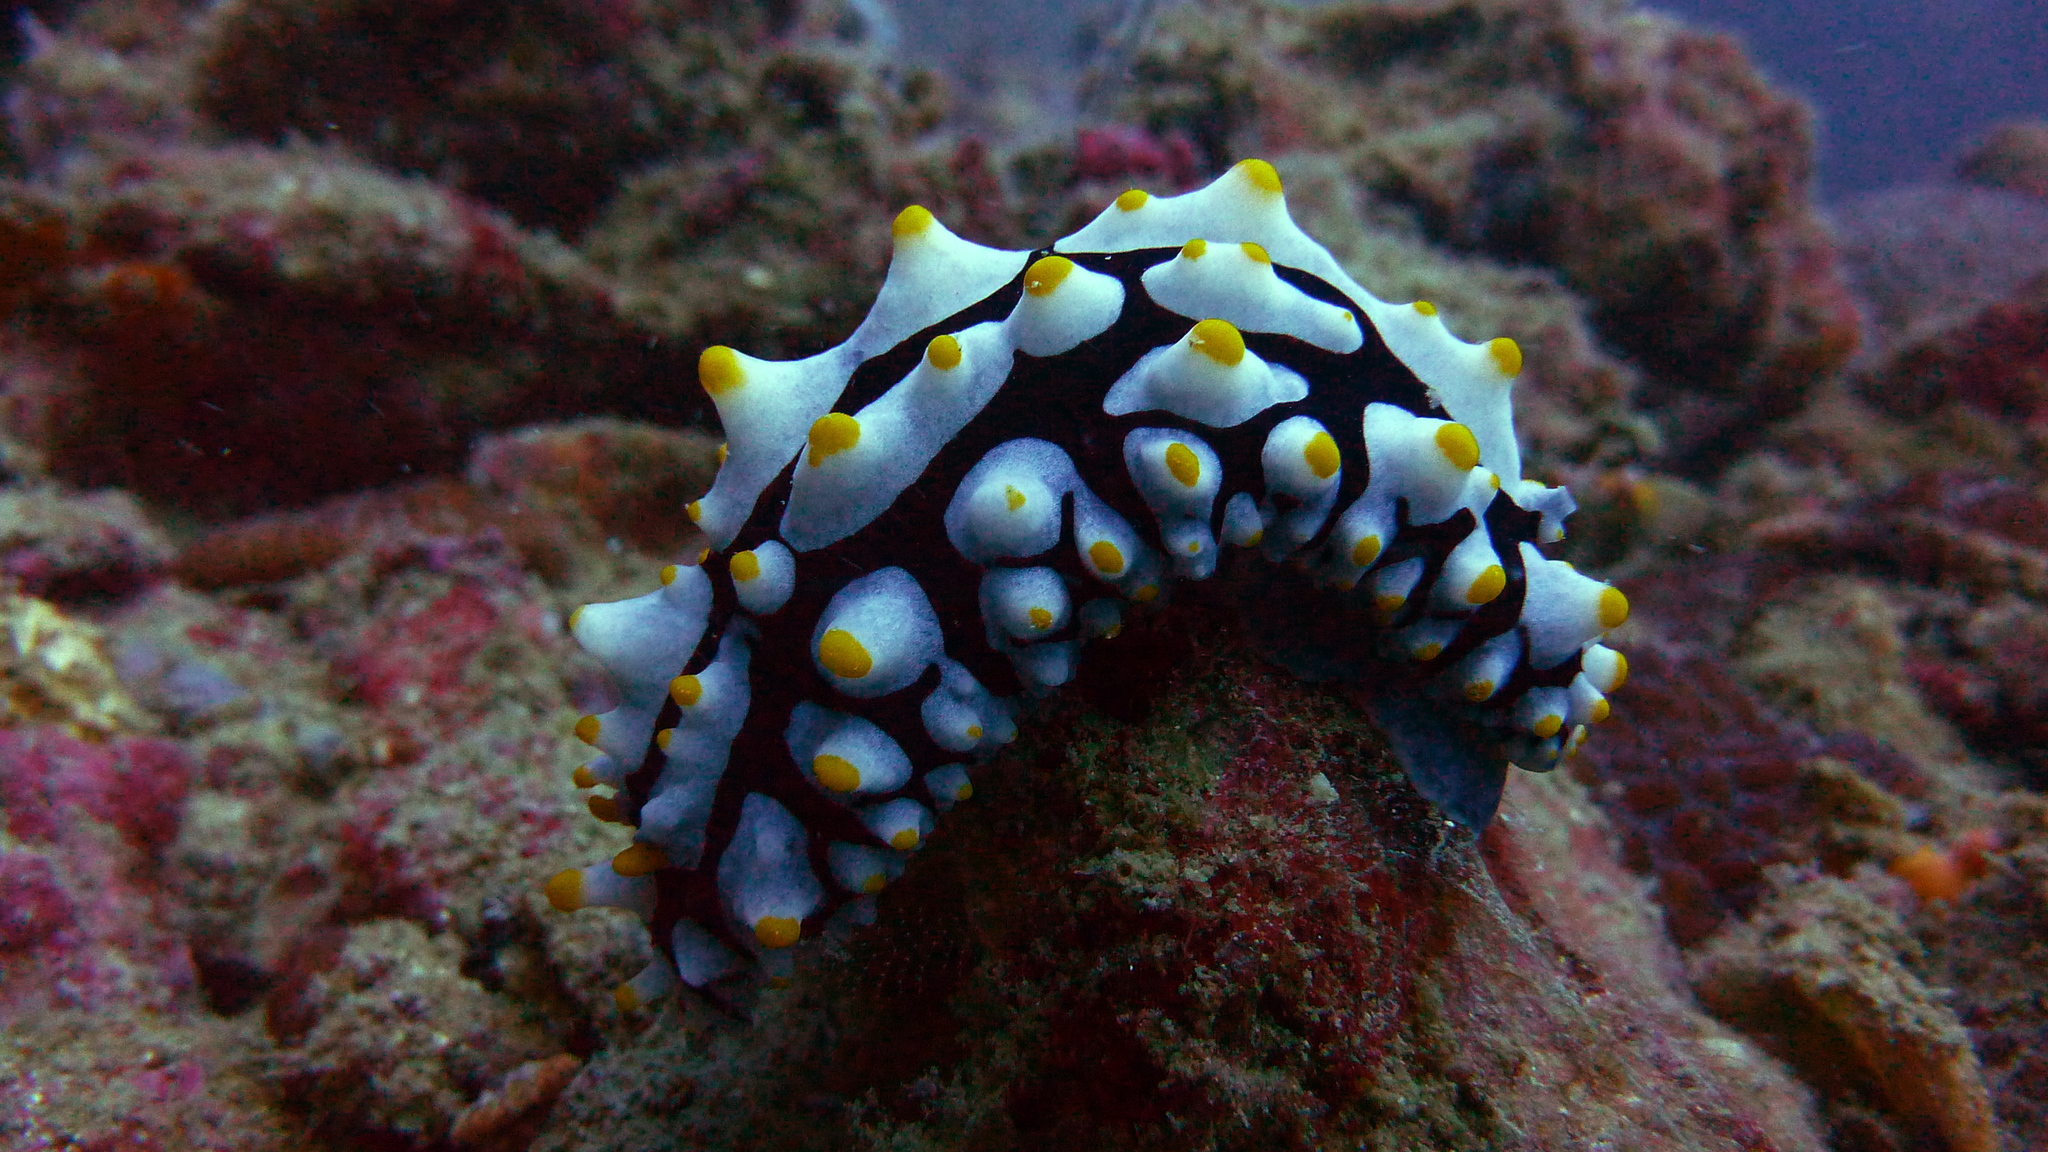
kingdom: Animalia
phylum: Mollusca
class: Gastropoda
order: Nudibranchia
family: Phyllidiidae
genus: Phyllidia
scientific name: Phyllidia varicosa
